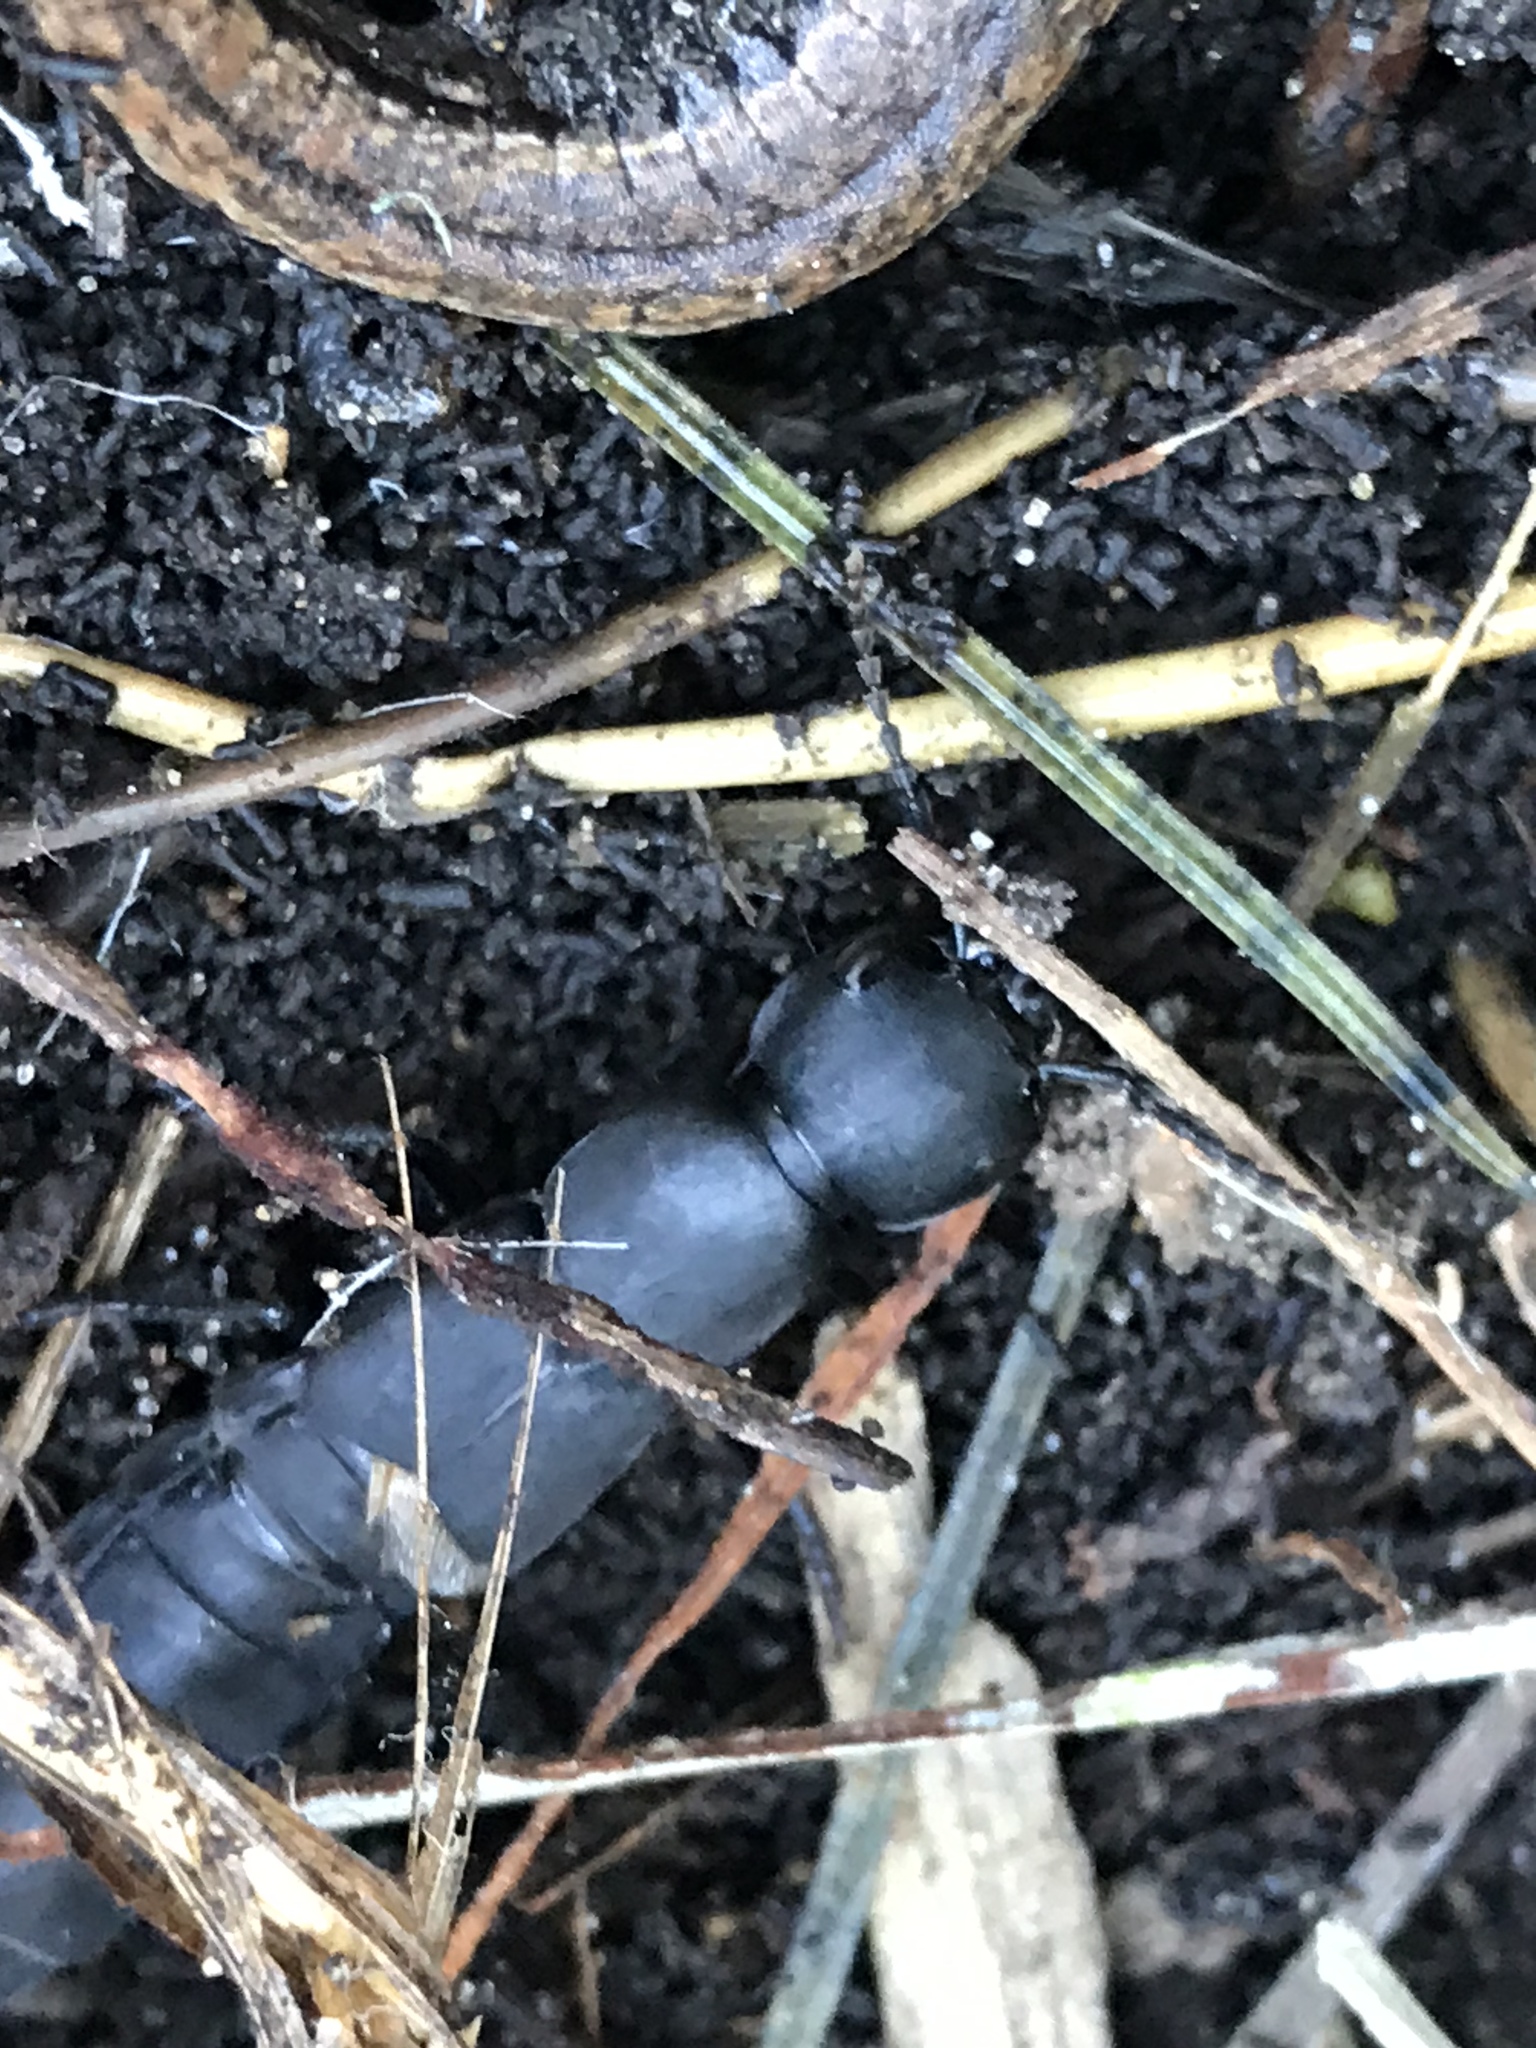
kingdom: Animalia
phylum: Arthropoda
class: Insecta
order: Coleoptera
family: Staphylinidae
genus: Ocypus
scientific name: Ocypus olens
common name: Devil's coach-horse
